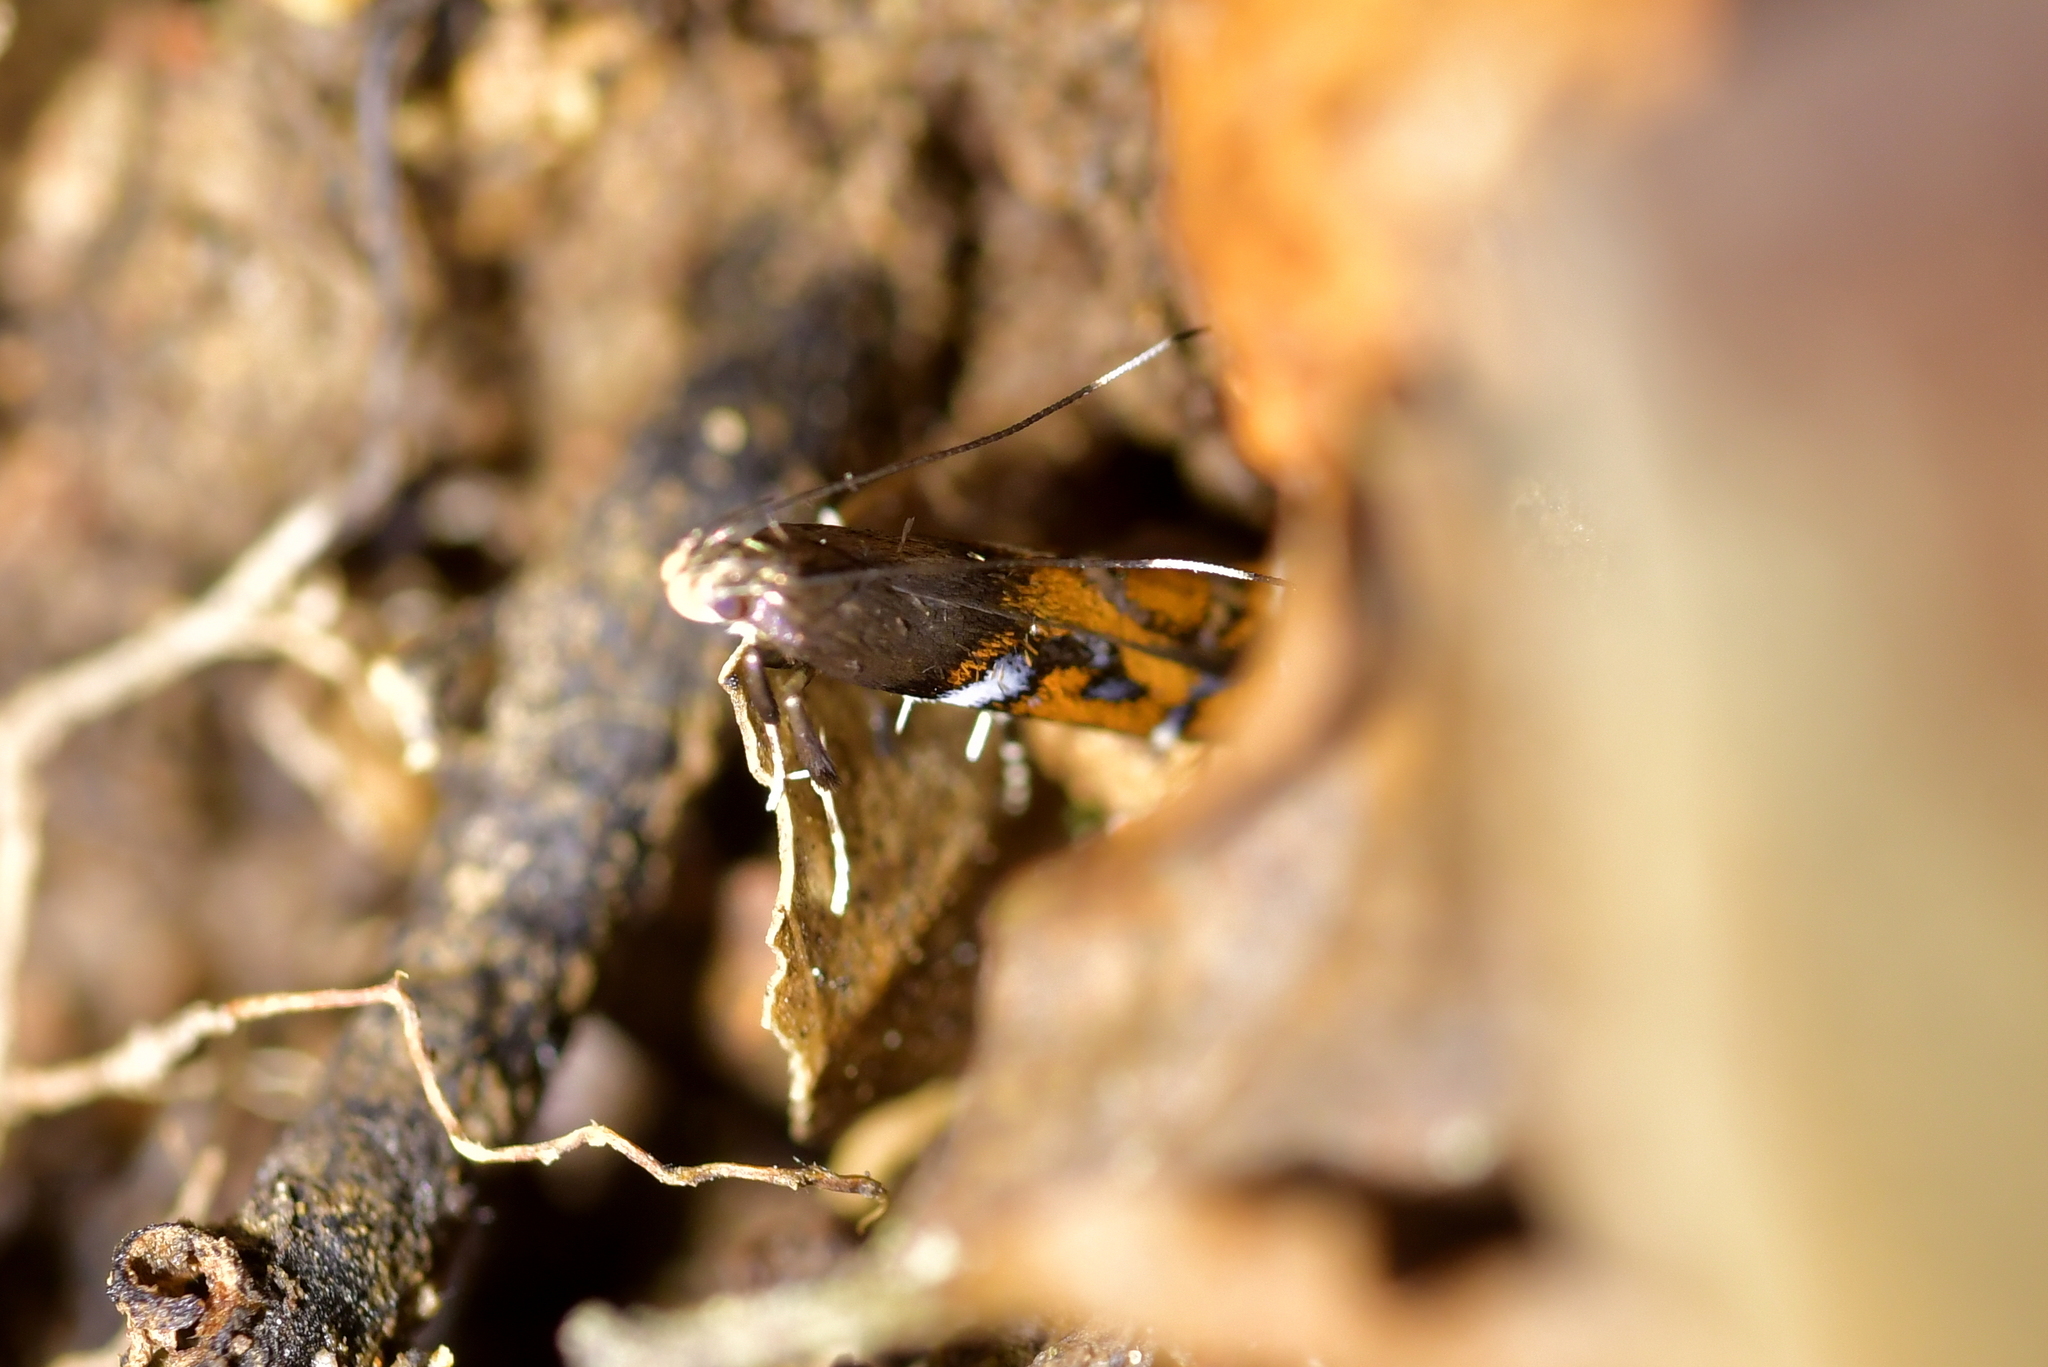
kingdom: Animalia
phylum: Arthropoda
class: Insecta
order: Lepidoptera
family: Depressariidae
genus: Compsistis
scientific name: Compsistis bifaciella
